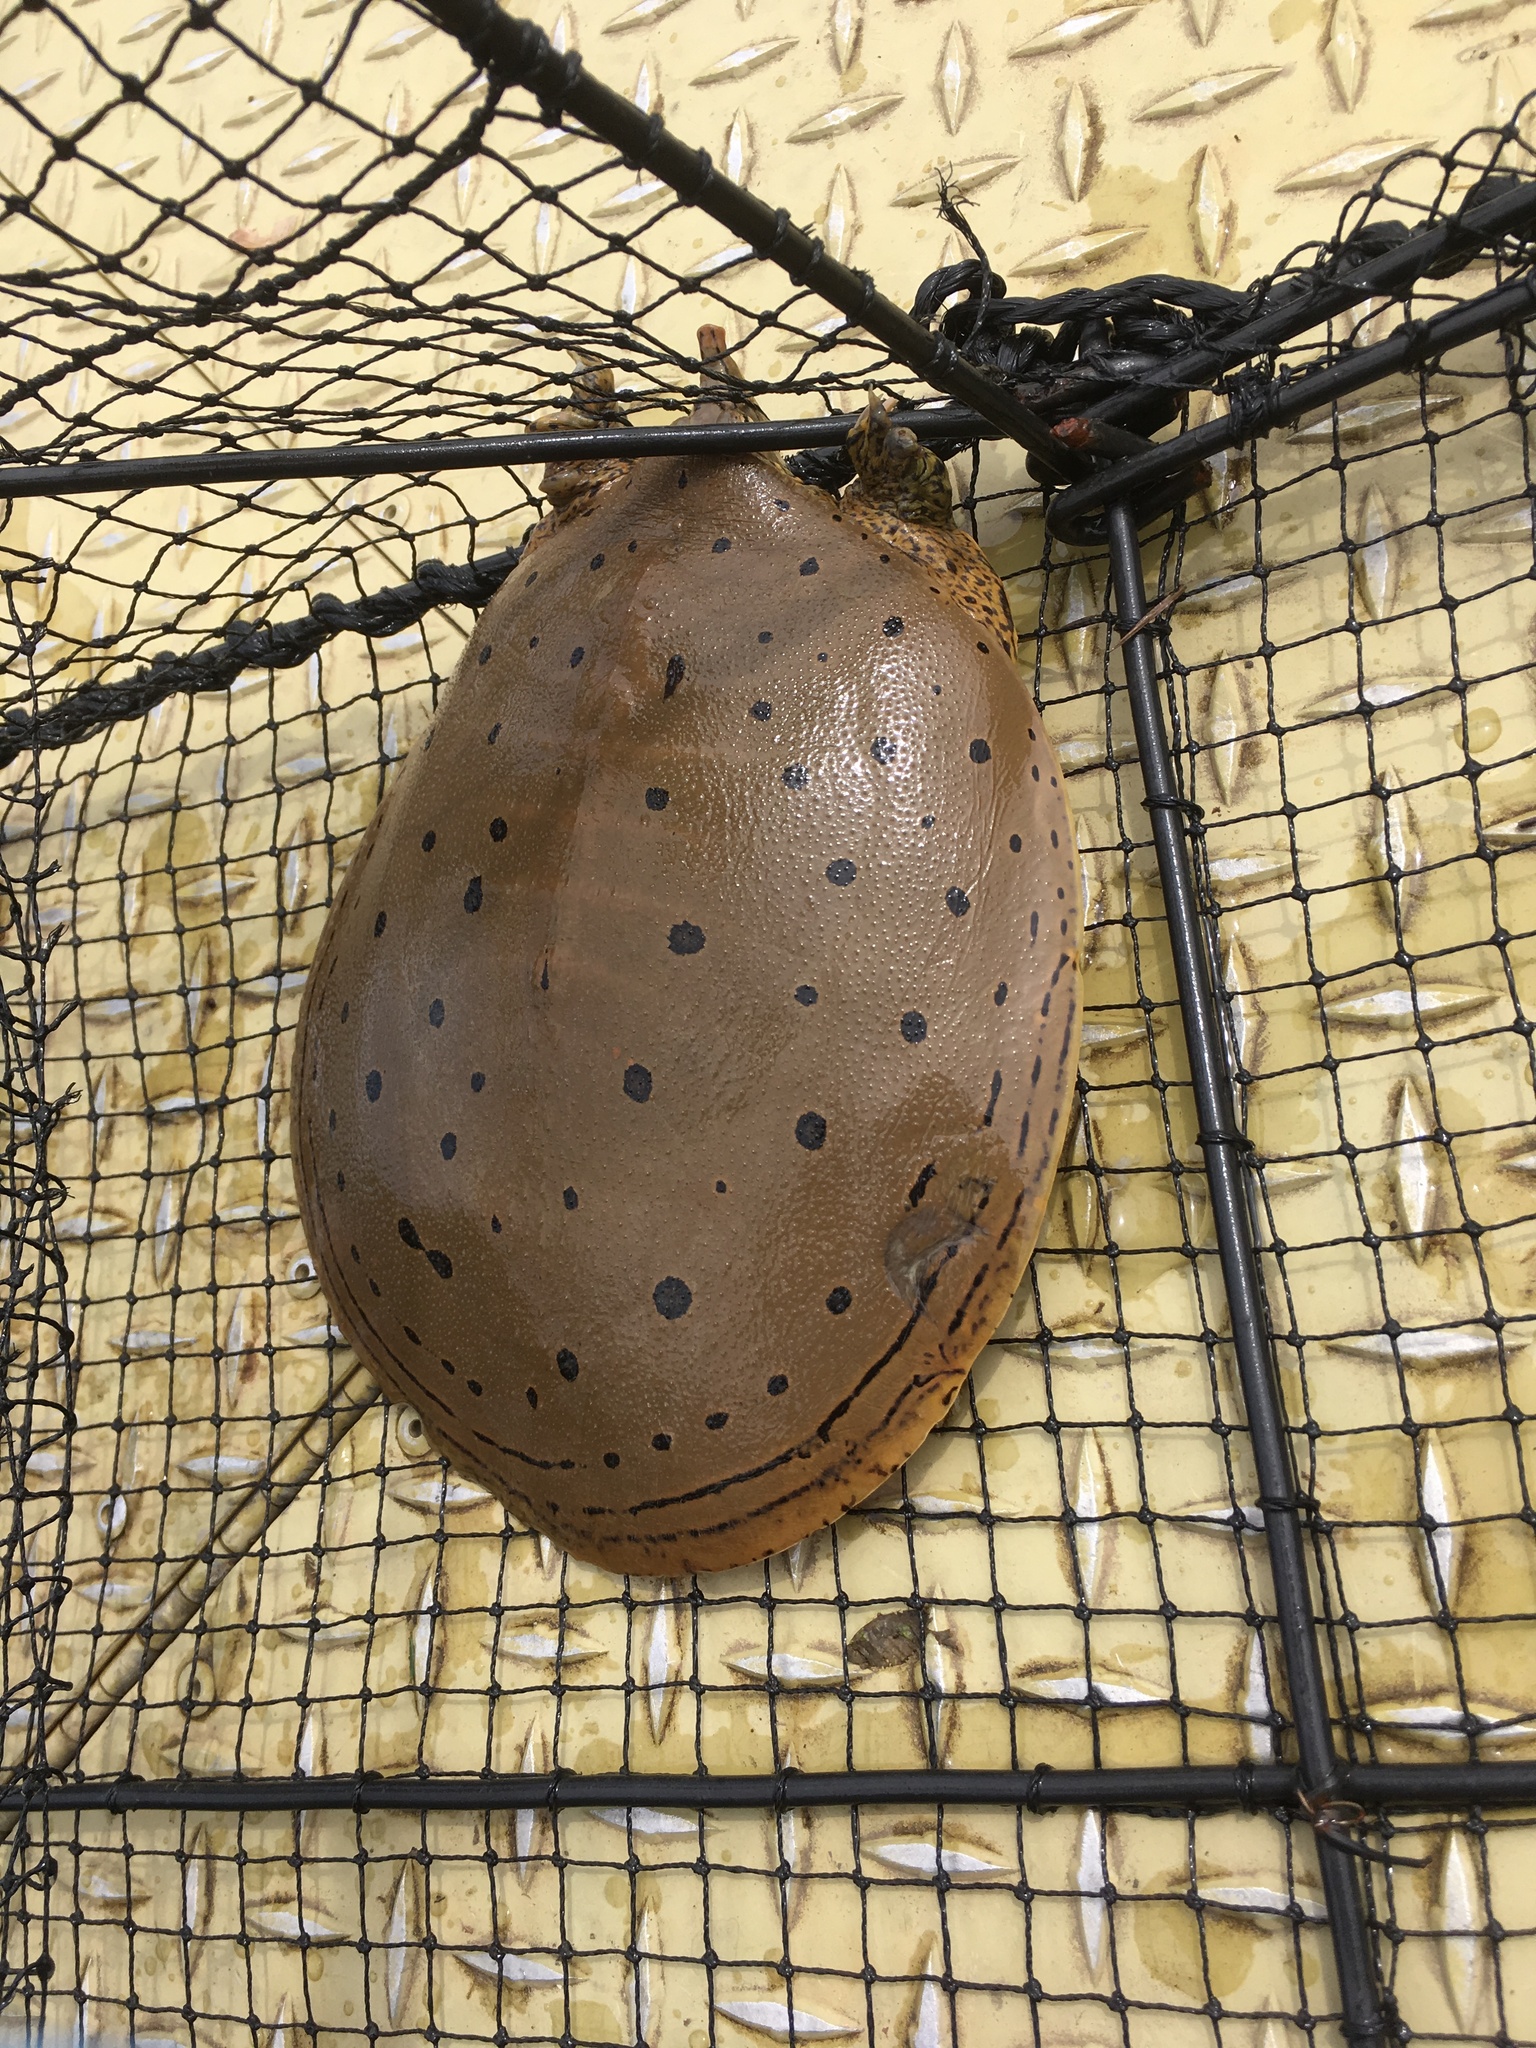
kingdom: Animalia
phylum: Chordata
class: Testudines
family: Trionychidae
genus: Apalone
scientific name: Apalone spinifera
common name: Spiny softshell turtle
